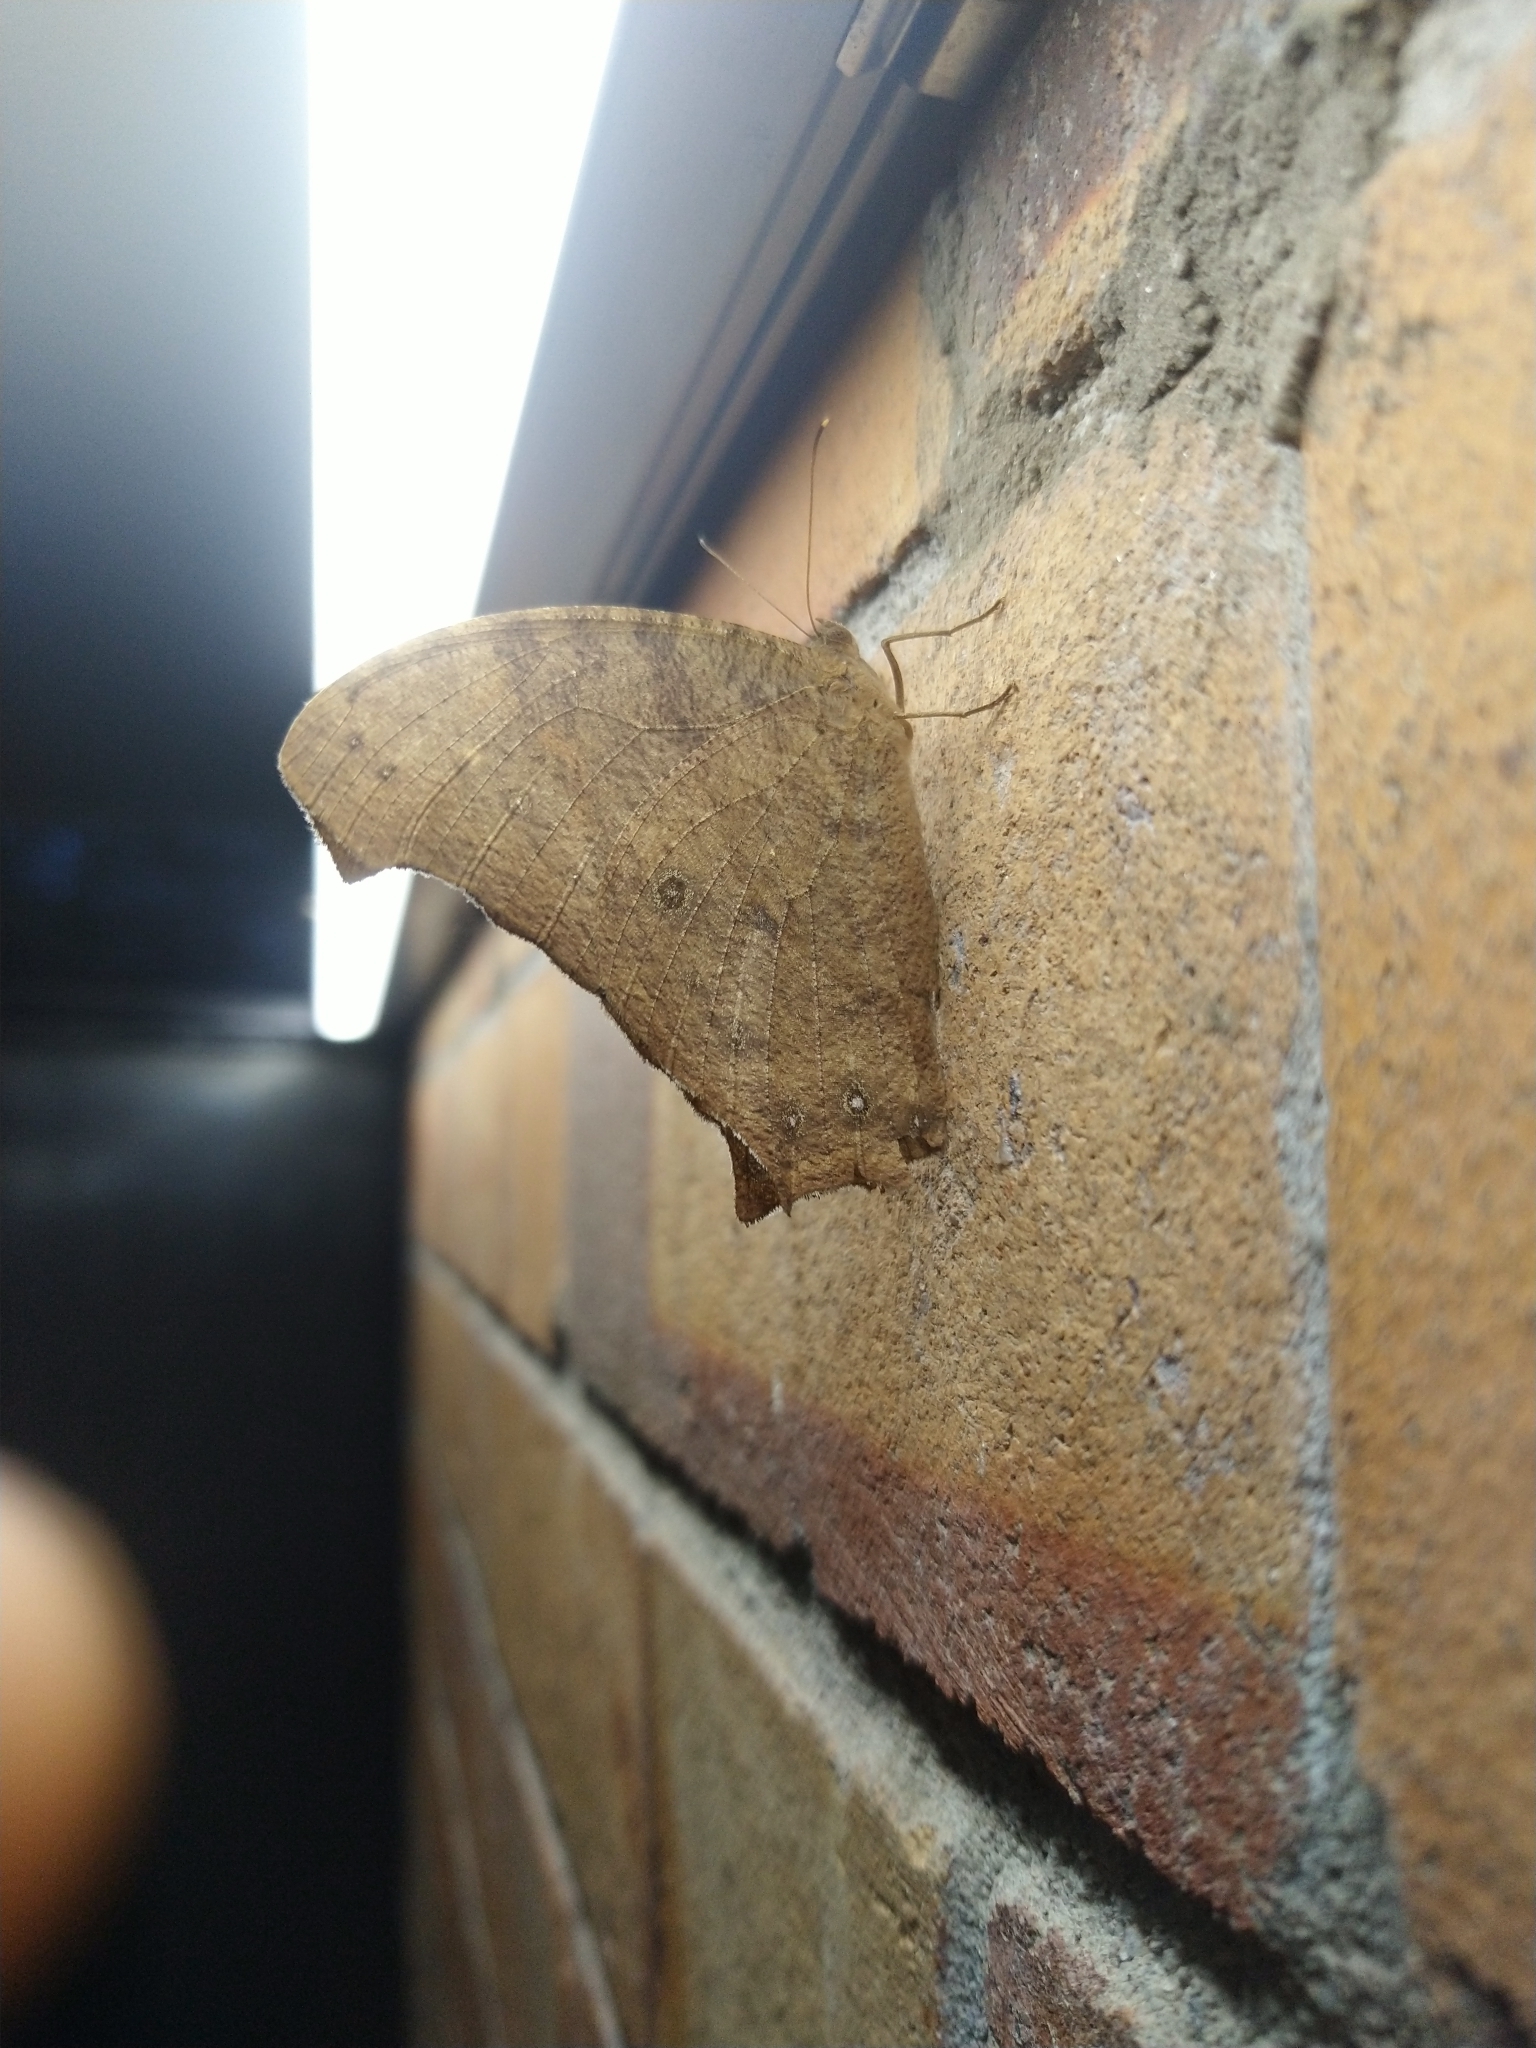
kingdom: Animalia
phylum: Arthropoda
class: Insecta
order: Lepidoptera
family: Nymphalidae
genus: Melanitis
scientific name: Melanitis leda
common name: Twilight brown
